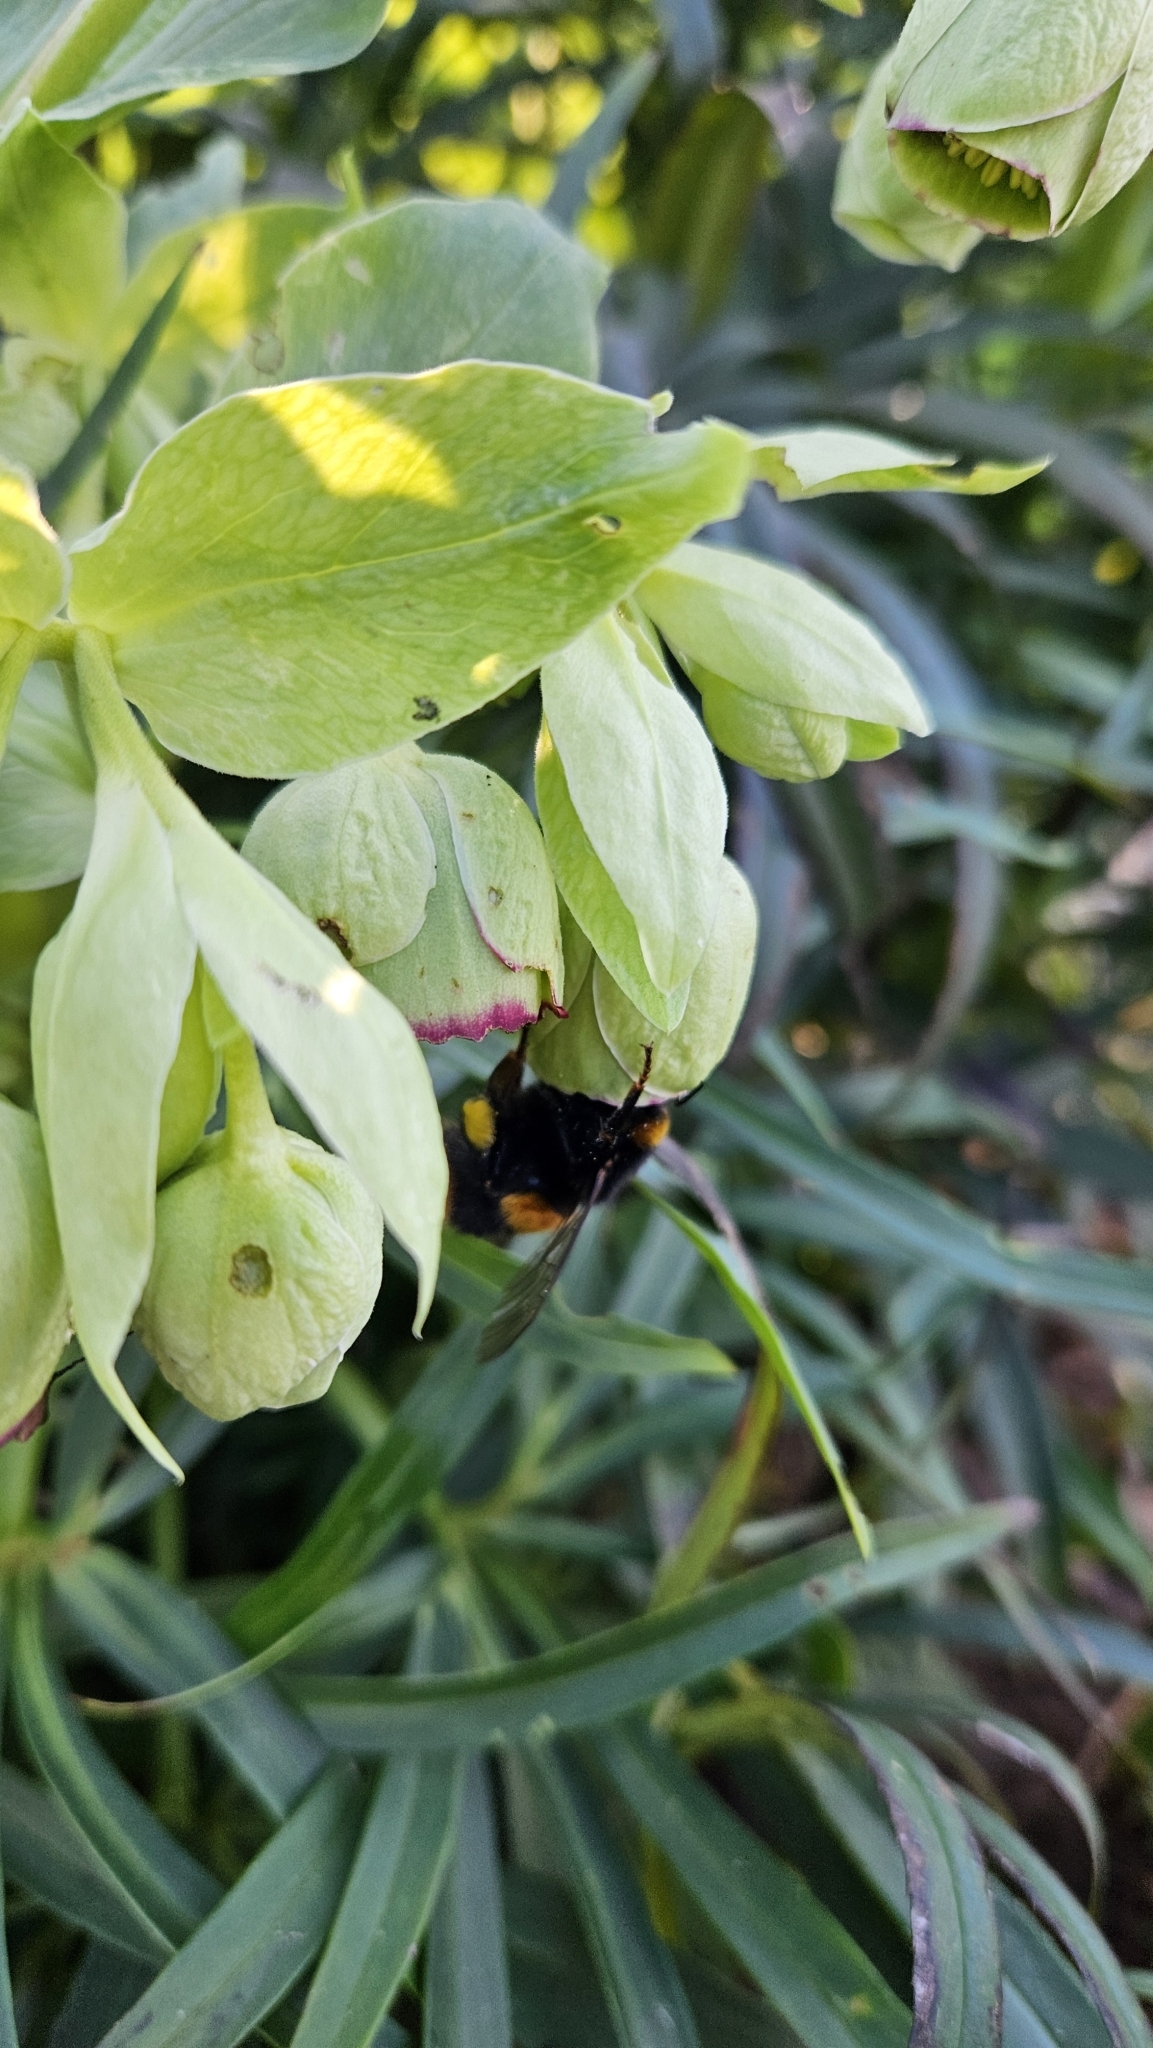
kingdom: Animalia
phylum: Arthropoda
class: Insecta
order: Hymenoptera
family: Apidae
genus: Bombus
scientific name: Bombus terrestris
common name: Buff-tailed bumblebee
